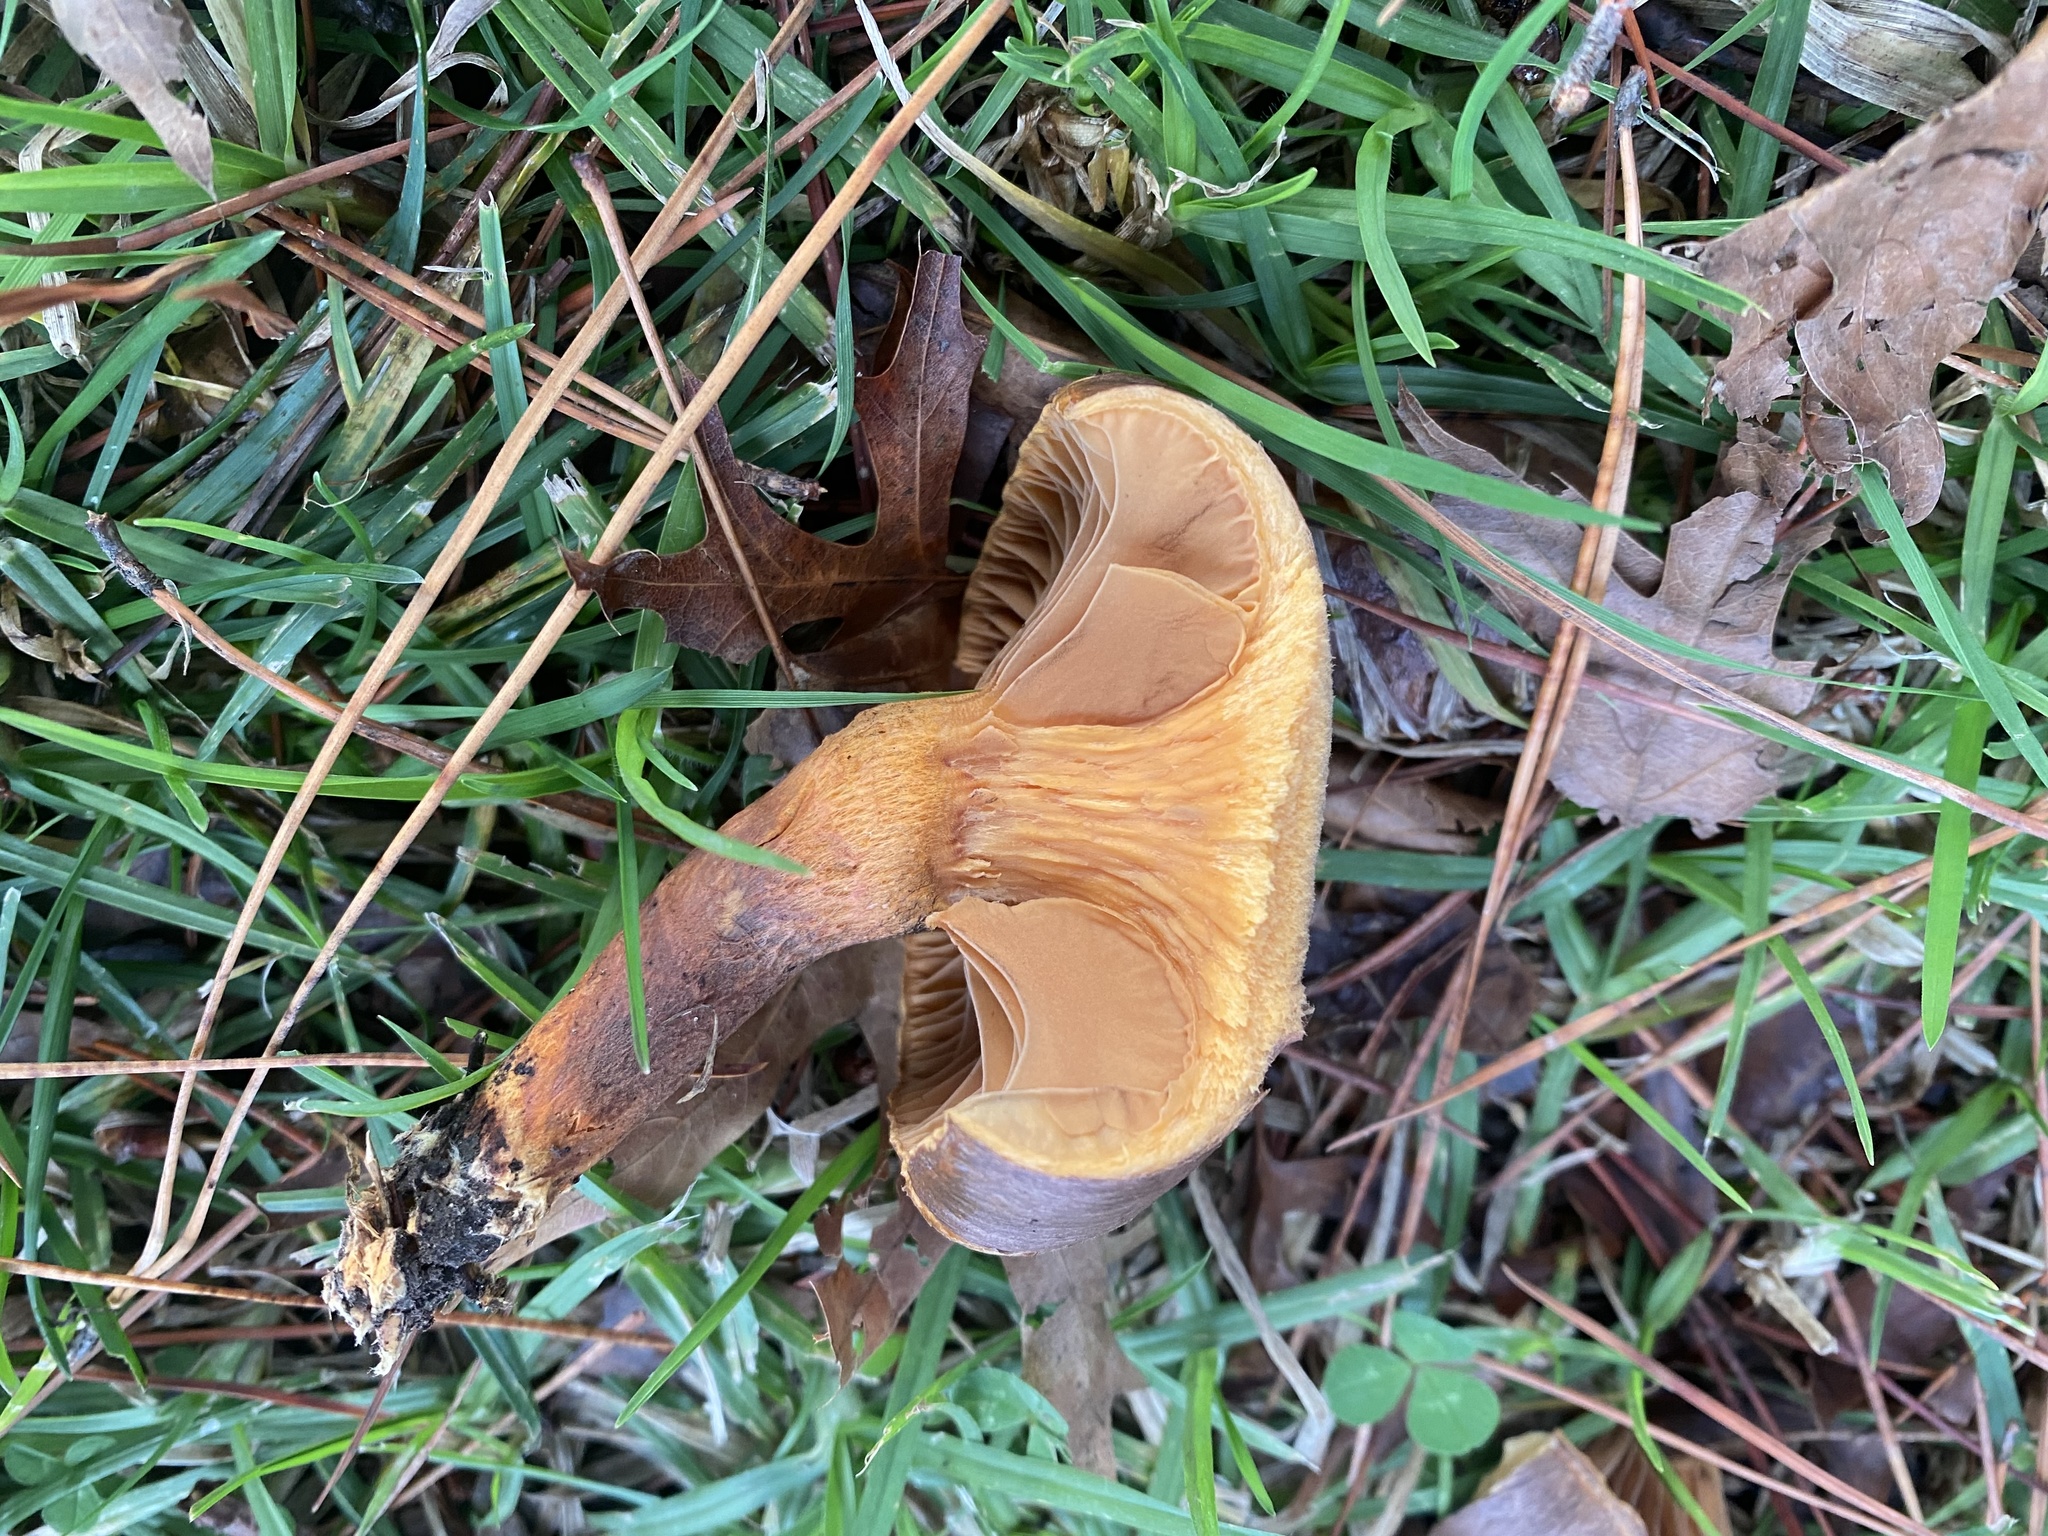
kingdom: Fungi
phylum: Basidiomycota
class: Agaricomycetes
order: Boletales
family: Gomphidiaceae
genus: Chroogomphus
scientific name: Chroogomphus vinicolor
